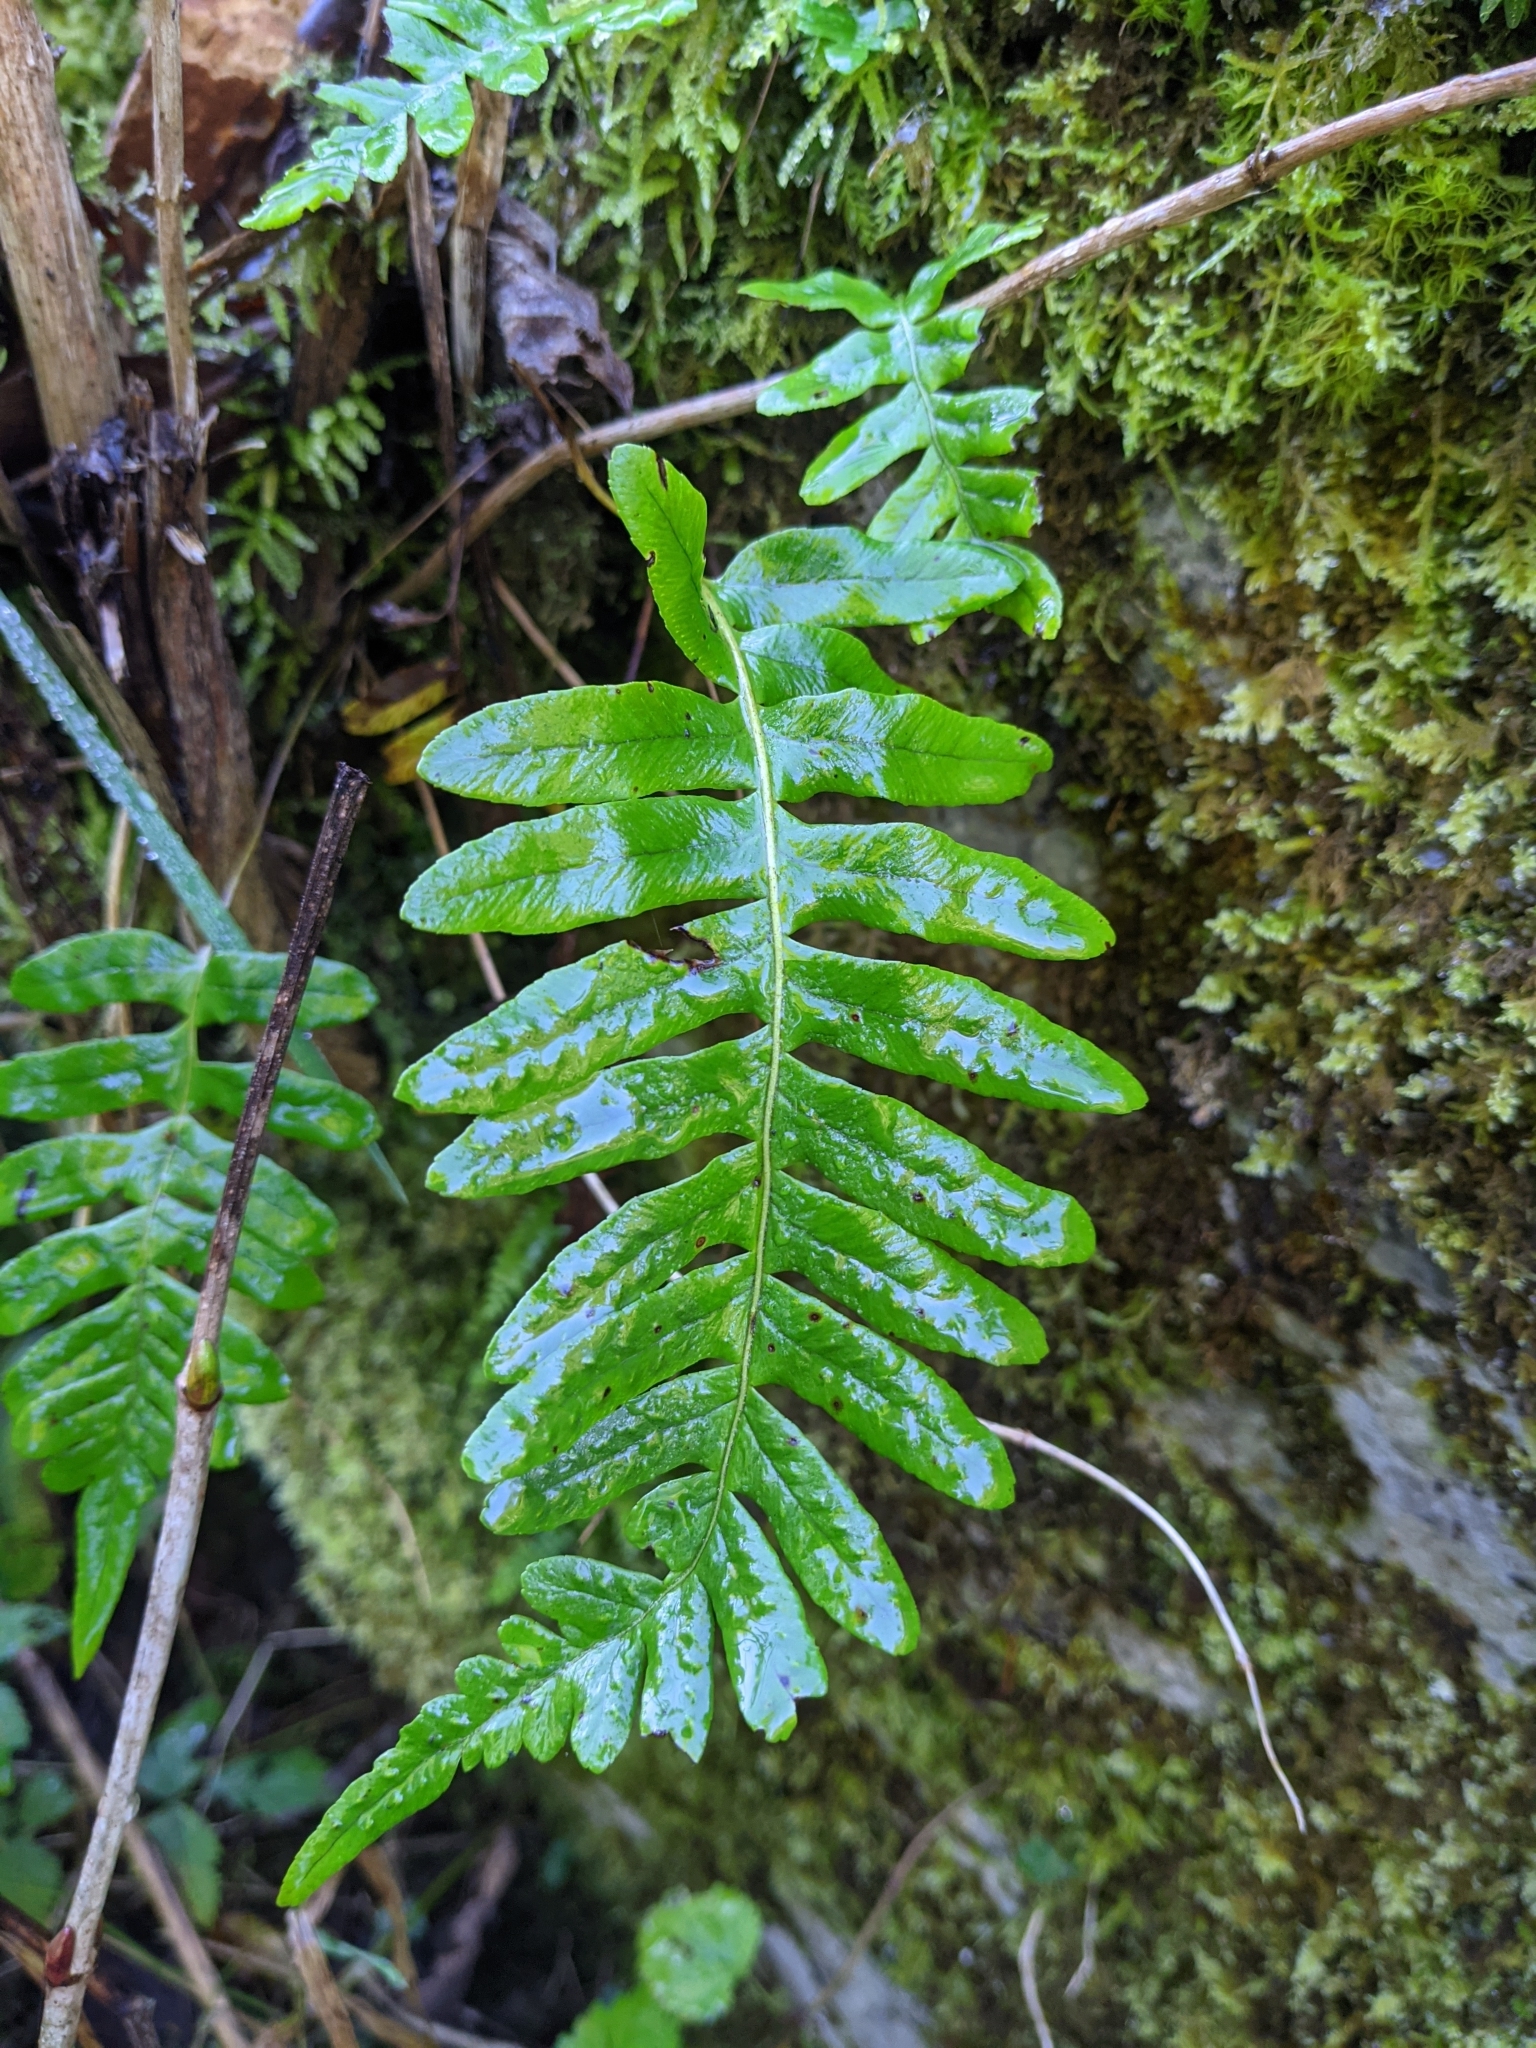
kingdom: Plantae
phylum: Tracheophyta
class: Polypodiopsida
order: Polypodiales
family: Polypodiaceae
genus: Polypodium
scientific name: Polypodium vulgare
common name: Common polypody
